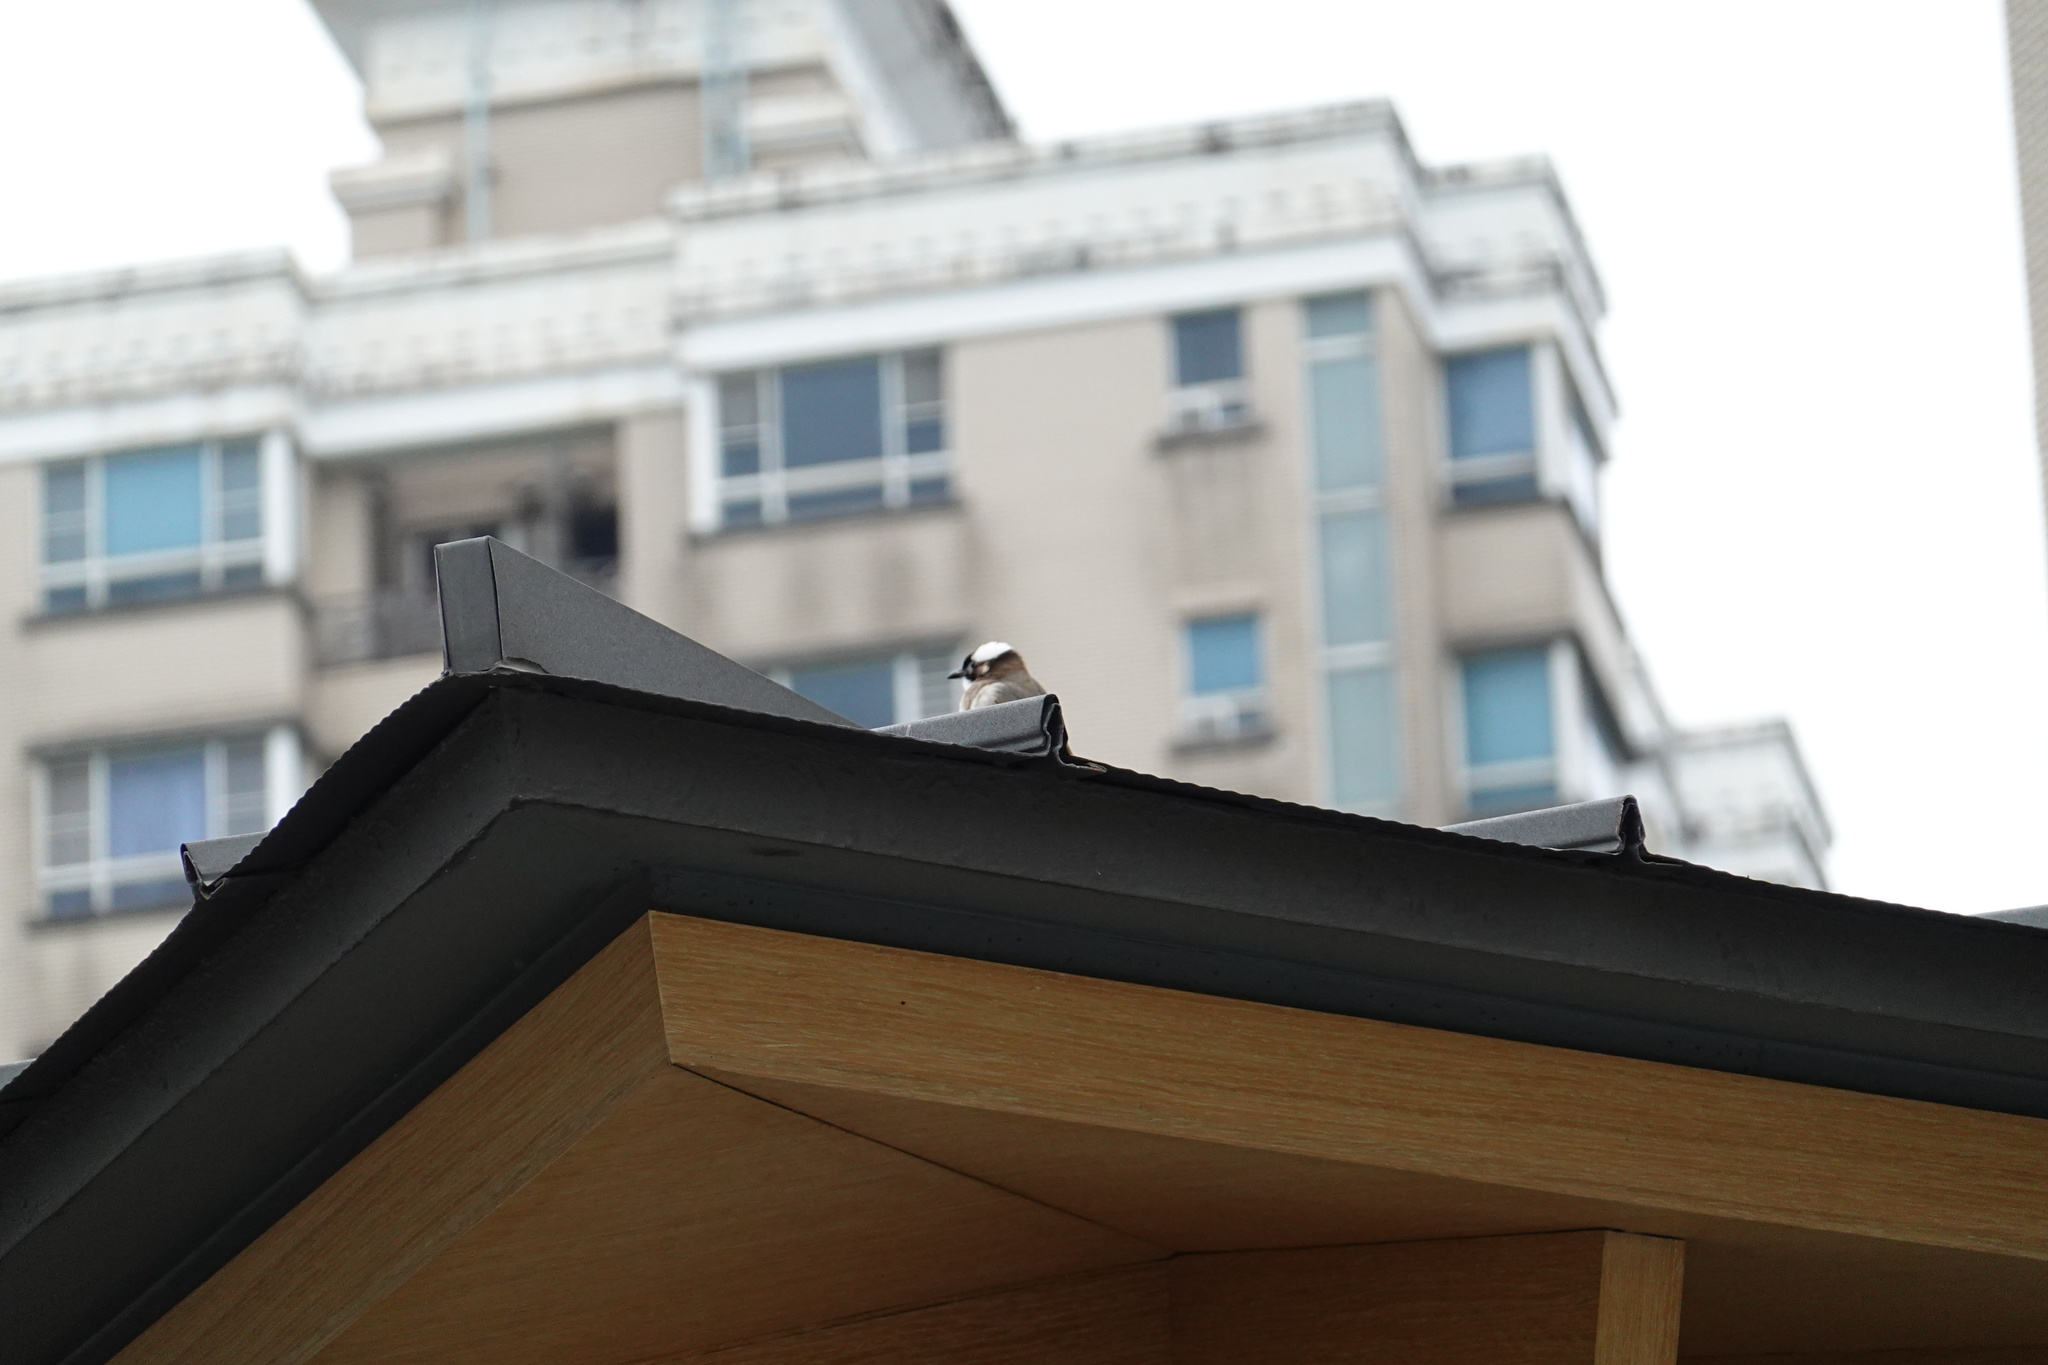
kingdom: Animalia
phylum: Chordata
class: Aves
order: Passeriformes
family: Pycnonotidae
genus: Pycnonotus
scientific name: Pycnonotus sinensis
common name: Light-vented bulbul
